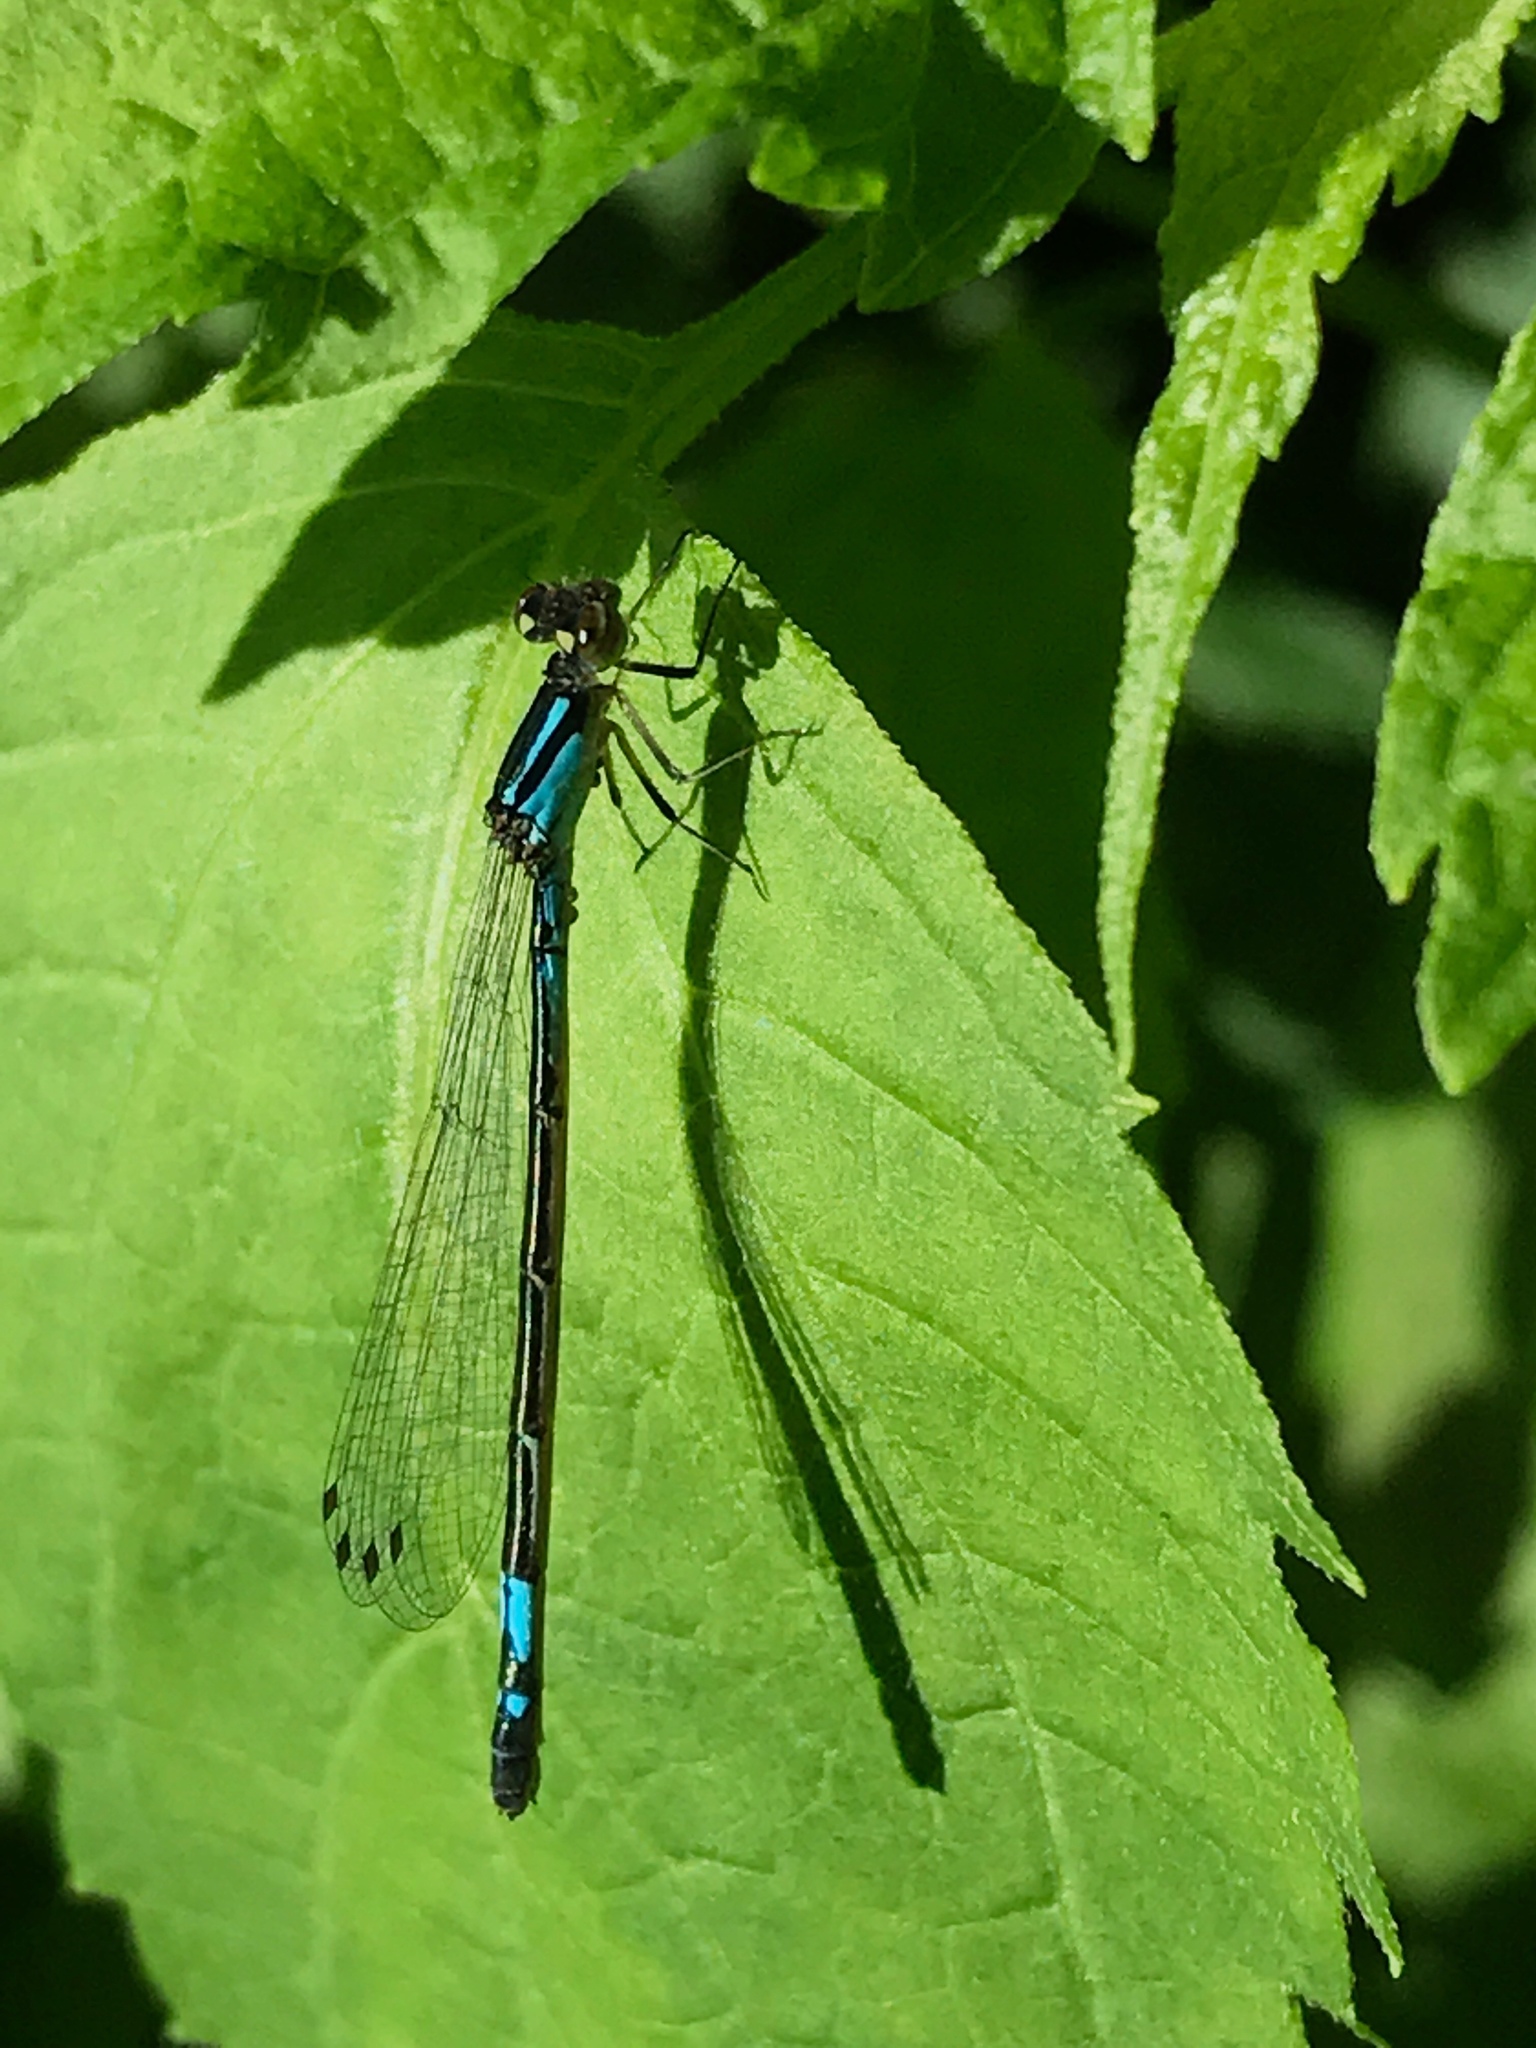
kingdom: Animalia
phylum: Arthropoda
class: Insecta
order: Odonata
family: Coenagrionidae
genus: Enallagma
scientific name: Enallagma aspersum
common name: Azure bluet
